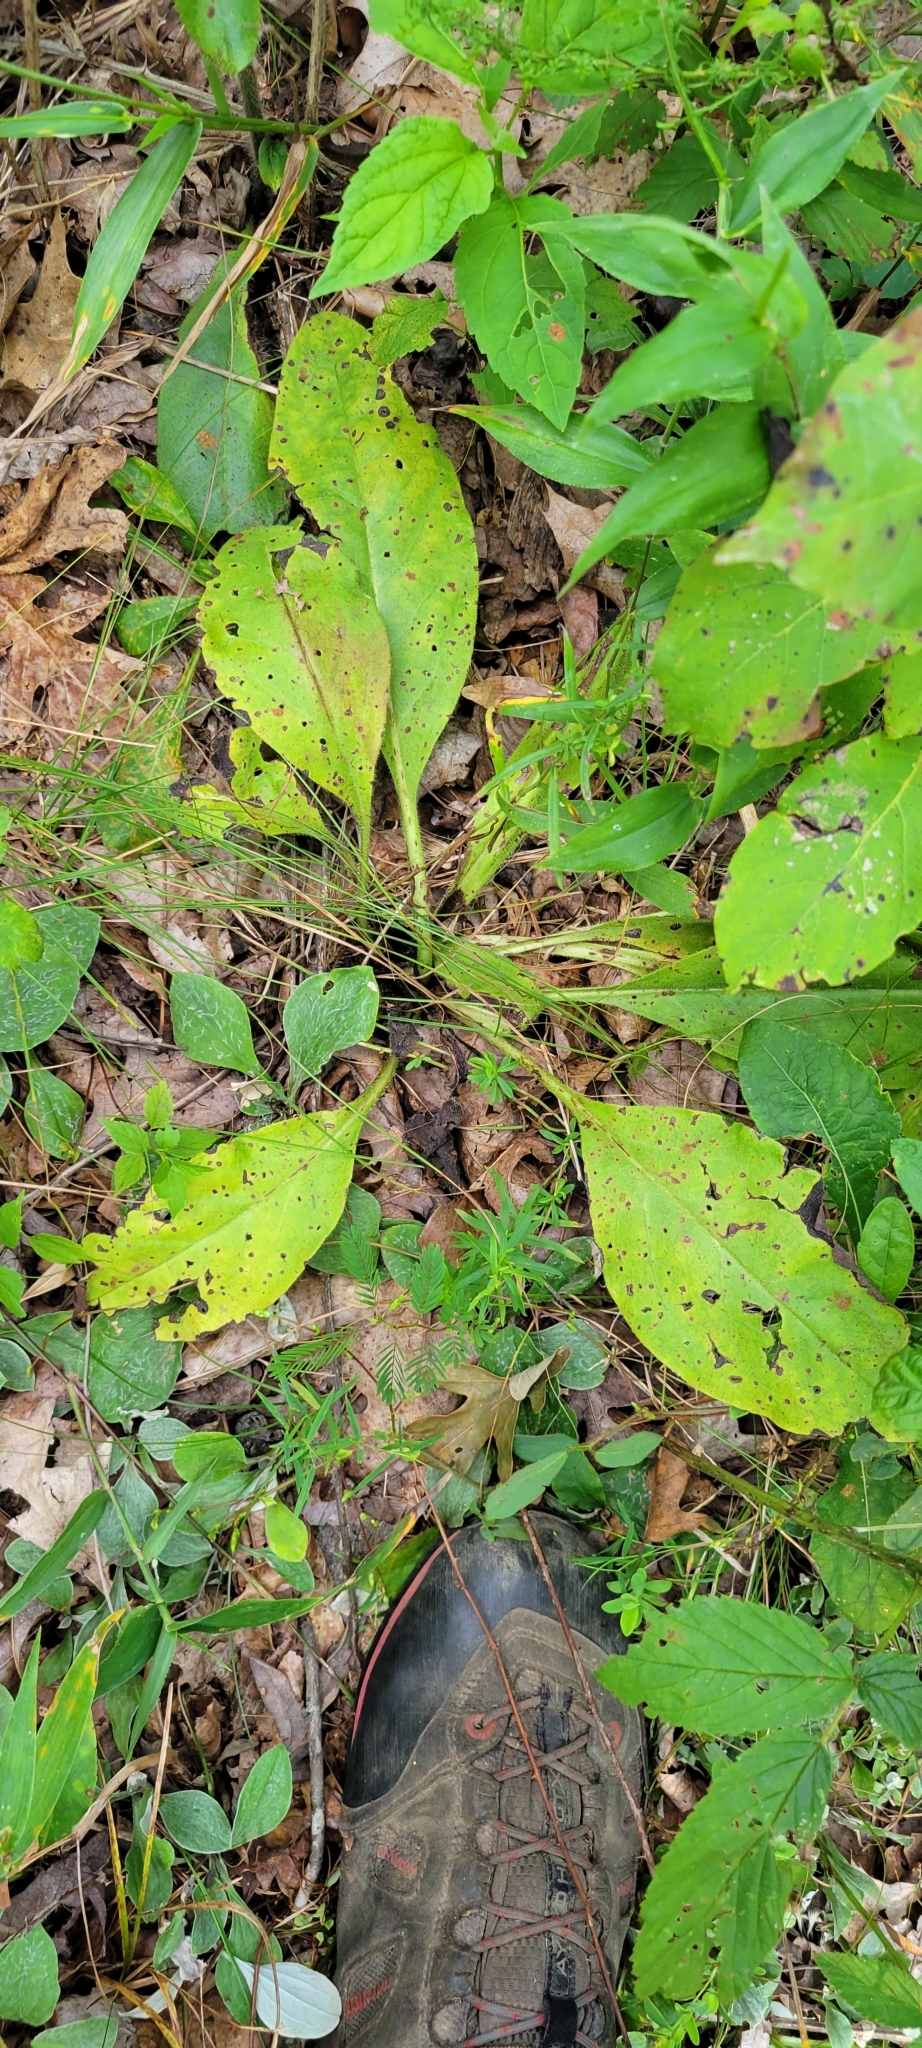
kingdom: Plantae
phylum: Tracheophyta
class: Magnoliopsida
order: Boraginales
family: Boraginaceae
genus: Andersonglossum
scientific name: Andersonglossum virginianum
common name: Wild comfrey
